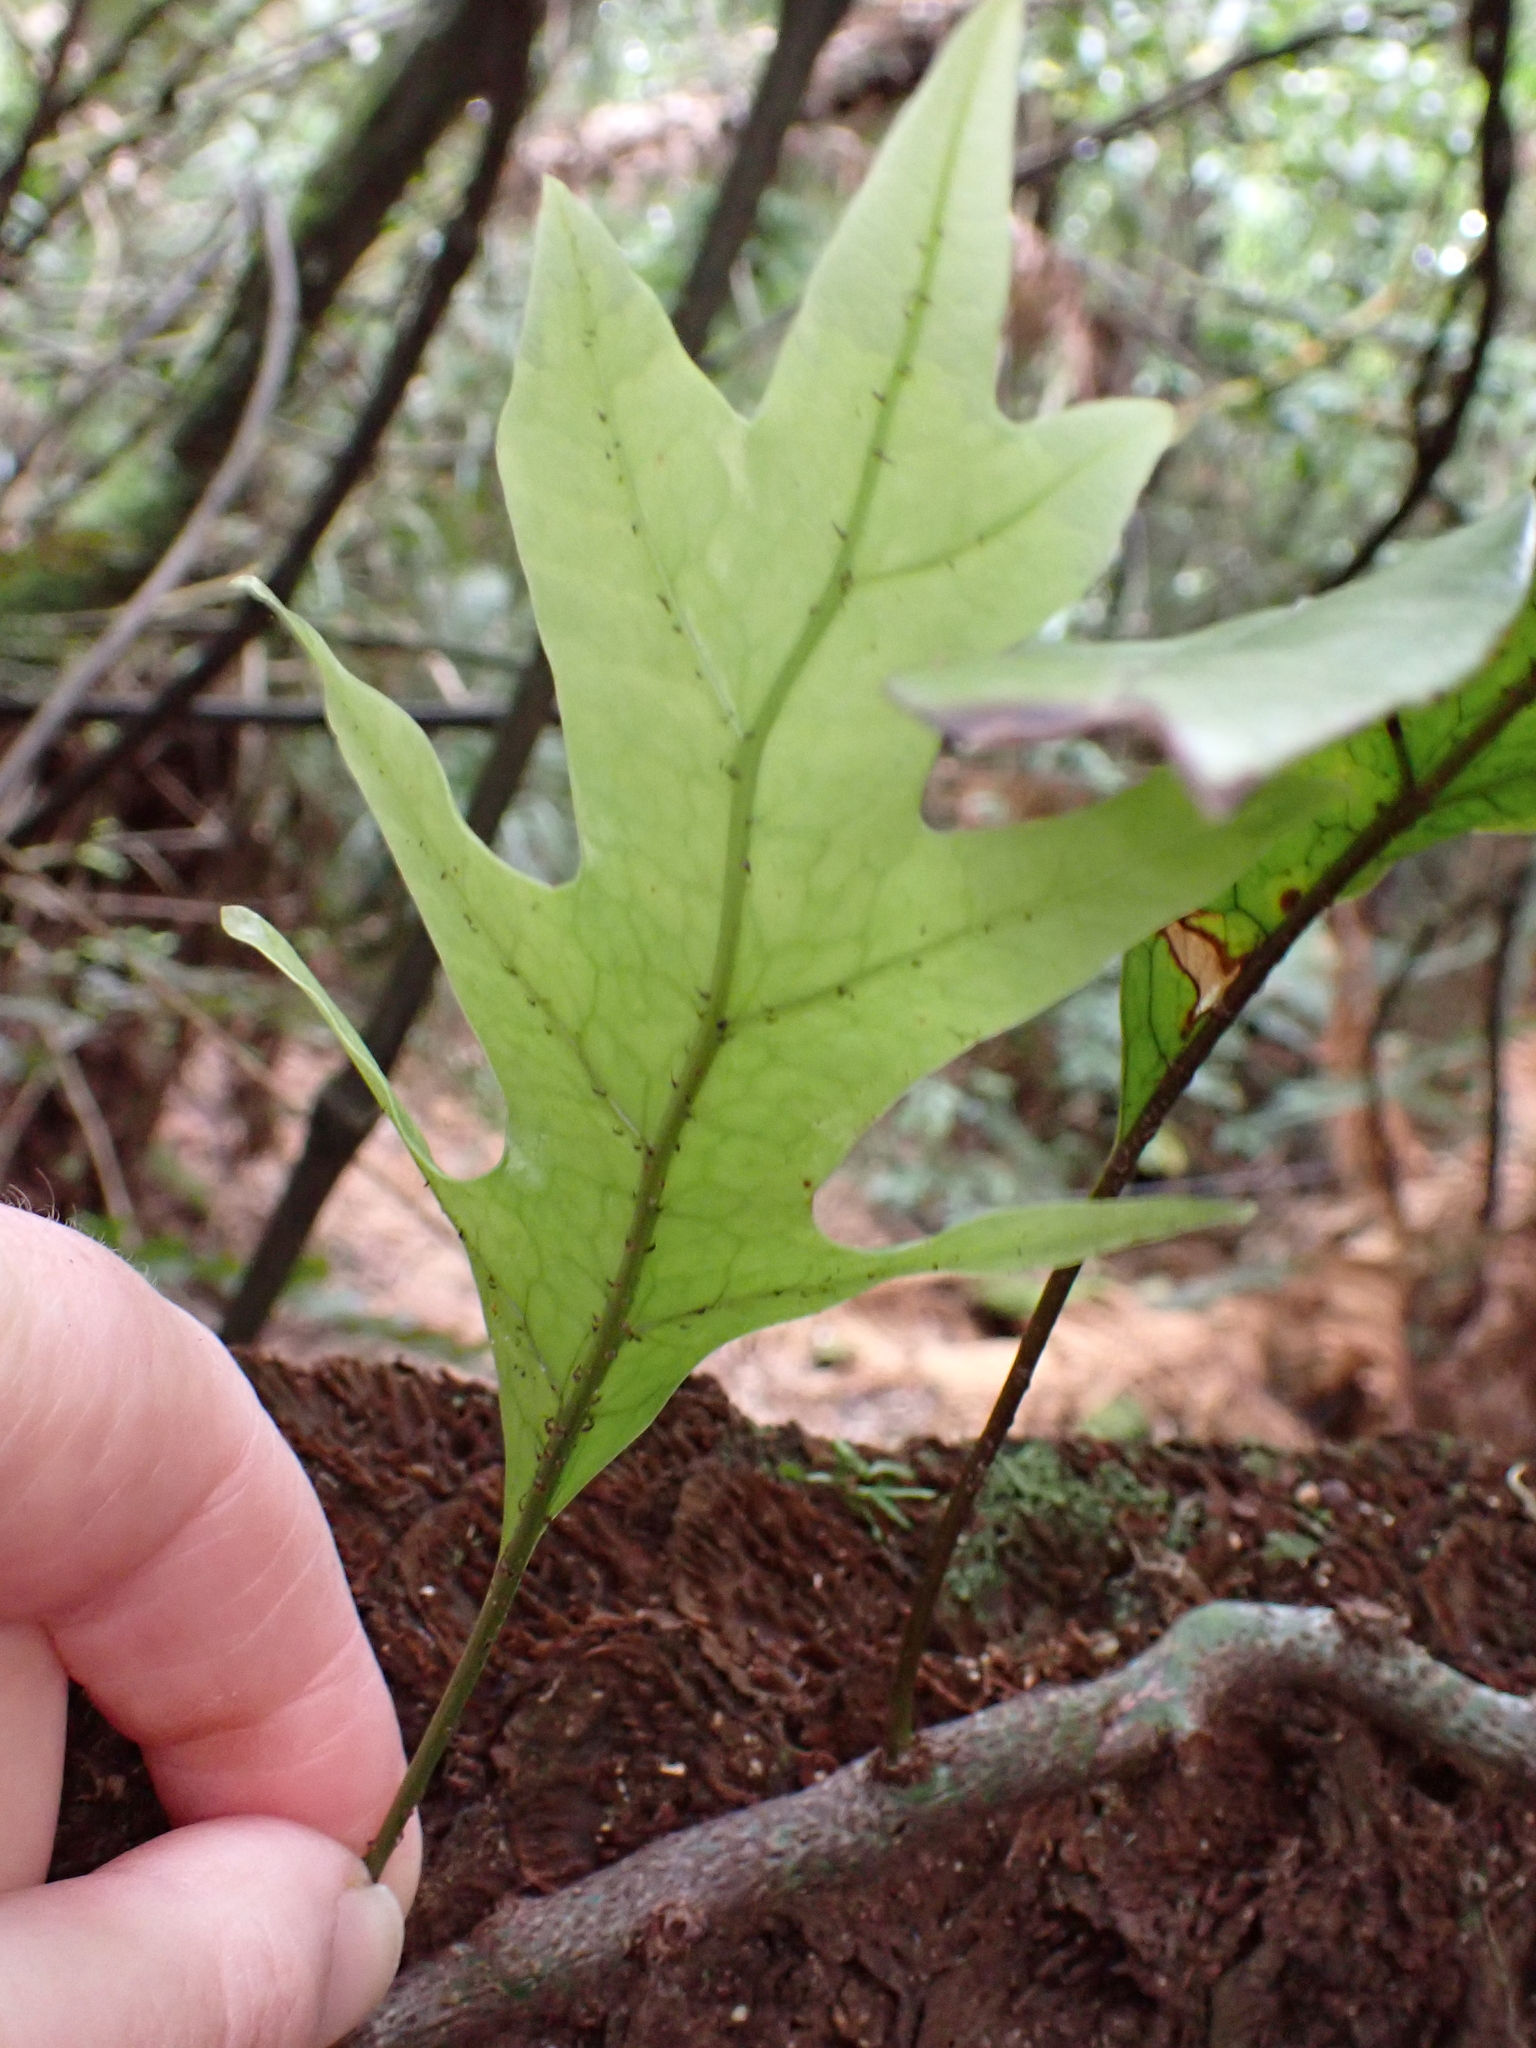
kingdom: Plantae
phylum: Tracheophyta
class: Polypodiopsida
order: Polypodiales
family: Polypodiaceae
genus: Lecanopteris
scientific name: Lecanopteris pustulata
